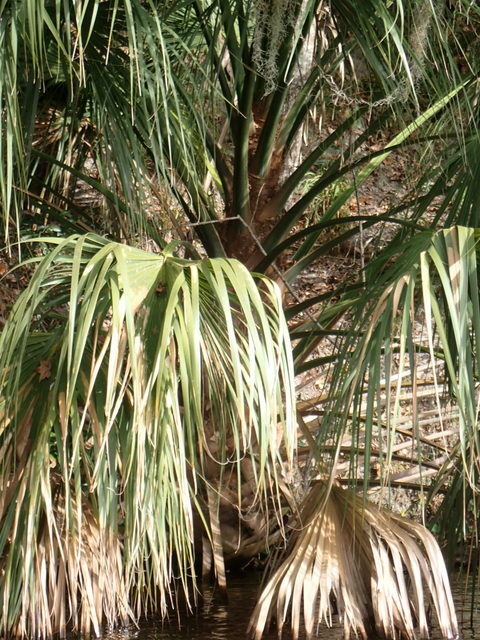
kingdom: Plantae
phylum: Tracheophyta
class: Liliopsida
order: Arecales
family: Arecaceae
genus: Sabal
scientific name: Sabal palmetto
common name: Blue palmetto
